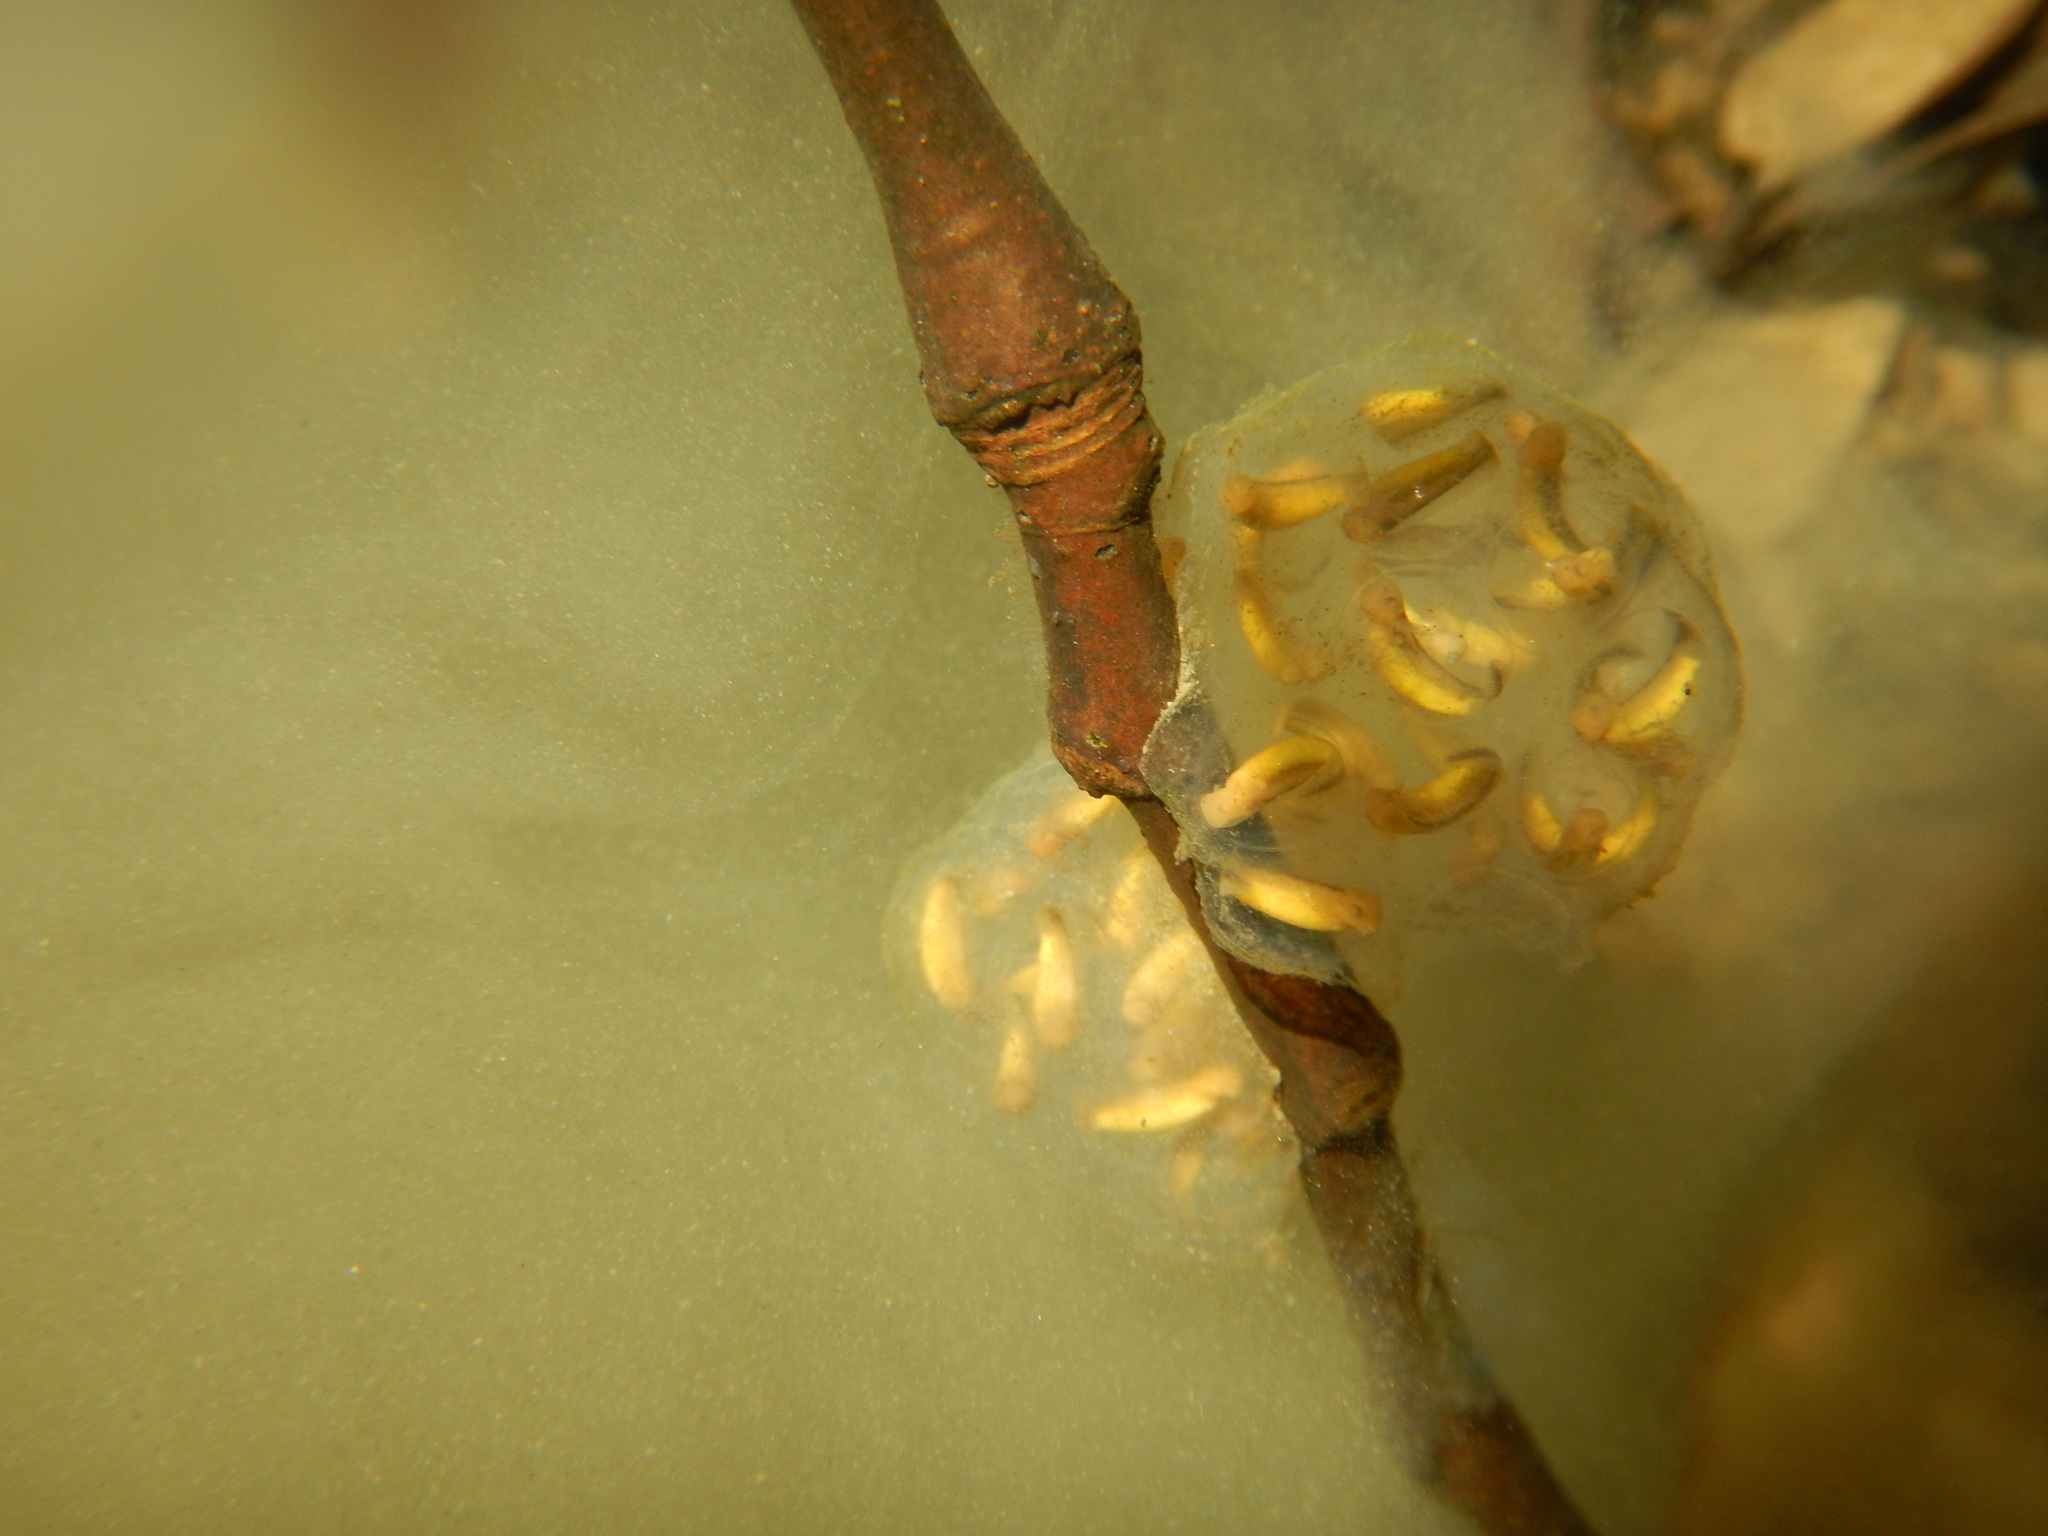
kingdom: Animalia
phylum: Chordata
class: Amphibia
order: Caudata
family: Salamandridae
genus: Taricha
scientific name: Taricha torosa
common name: California newt
